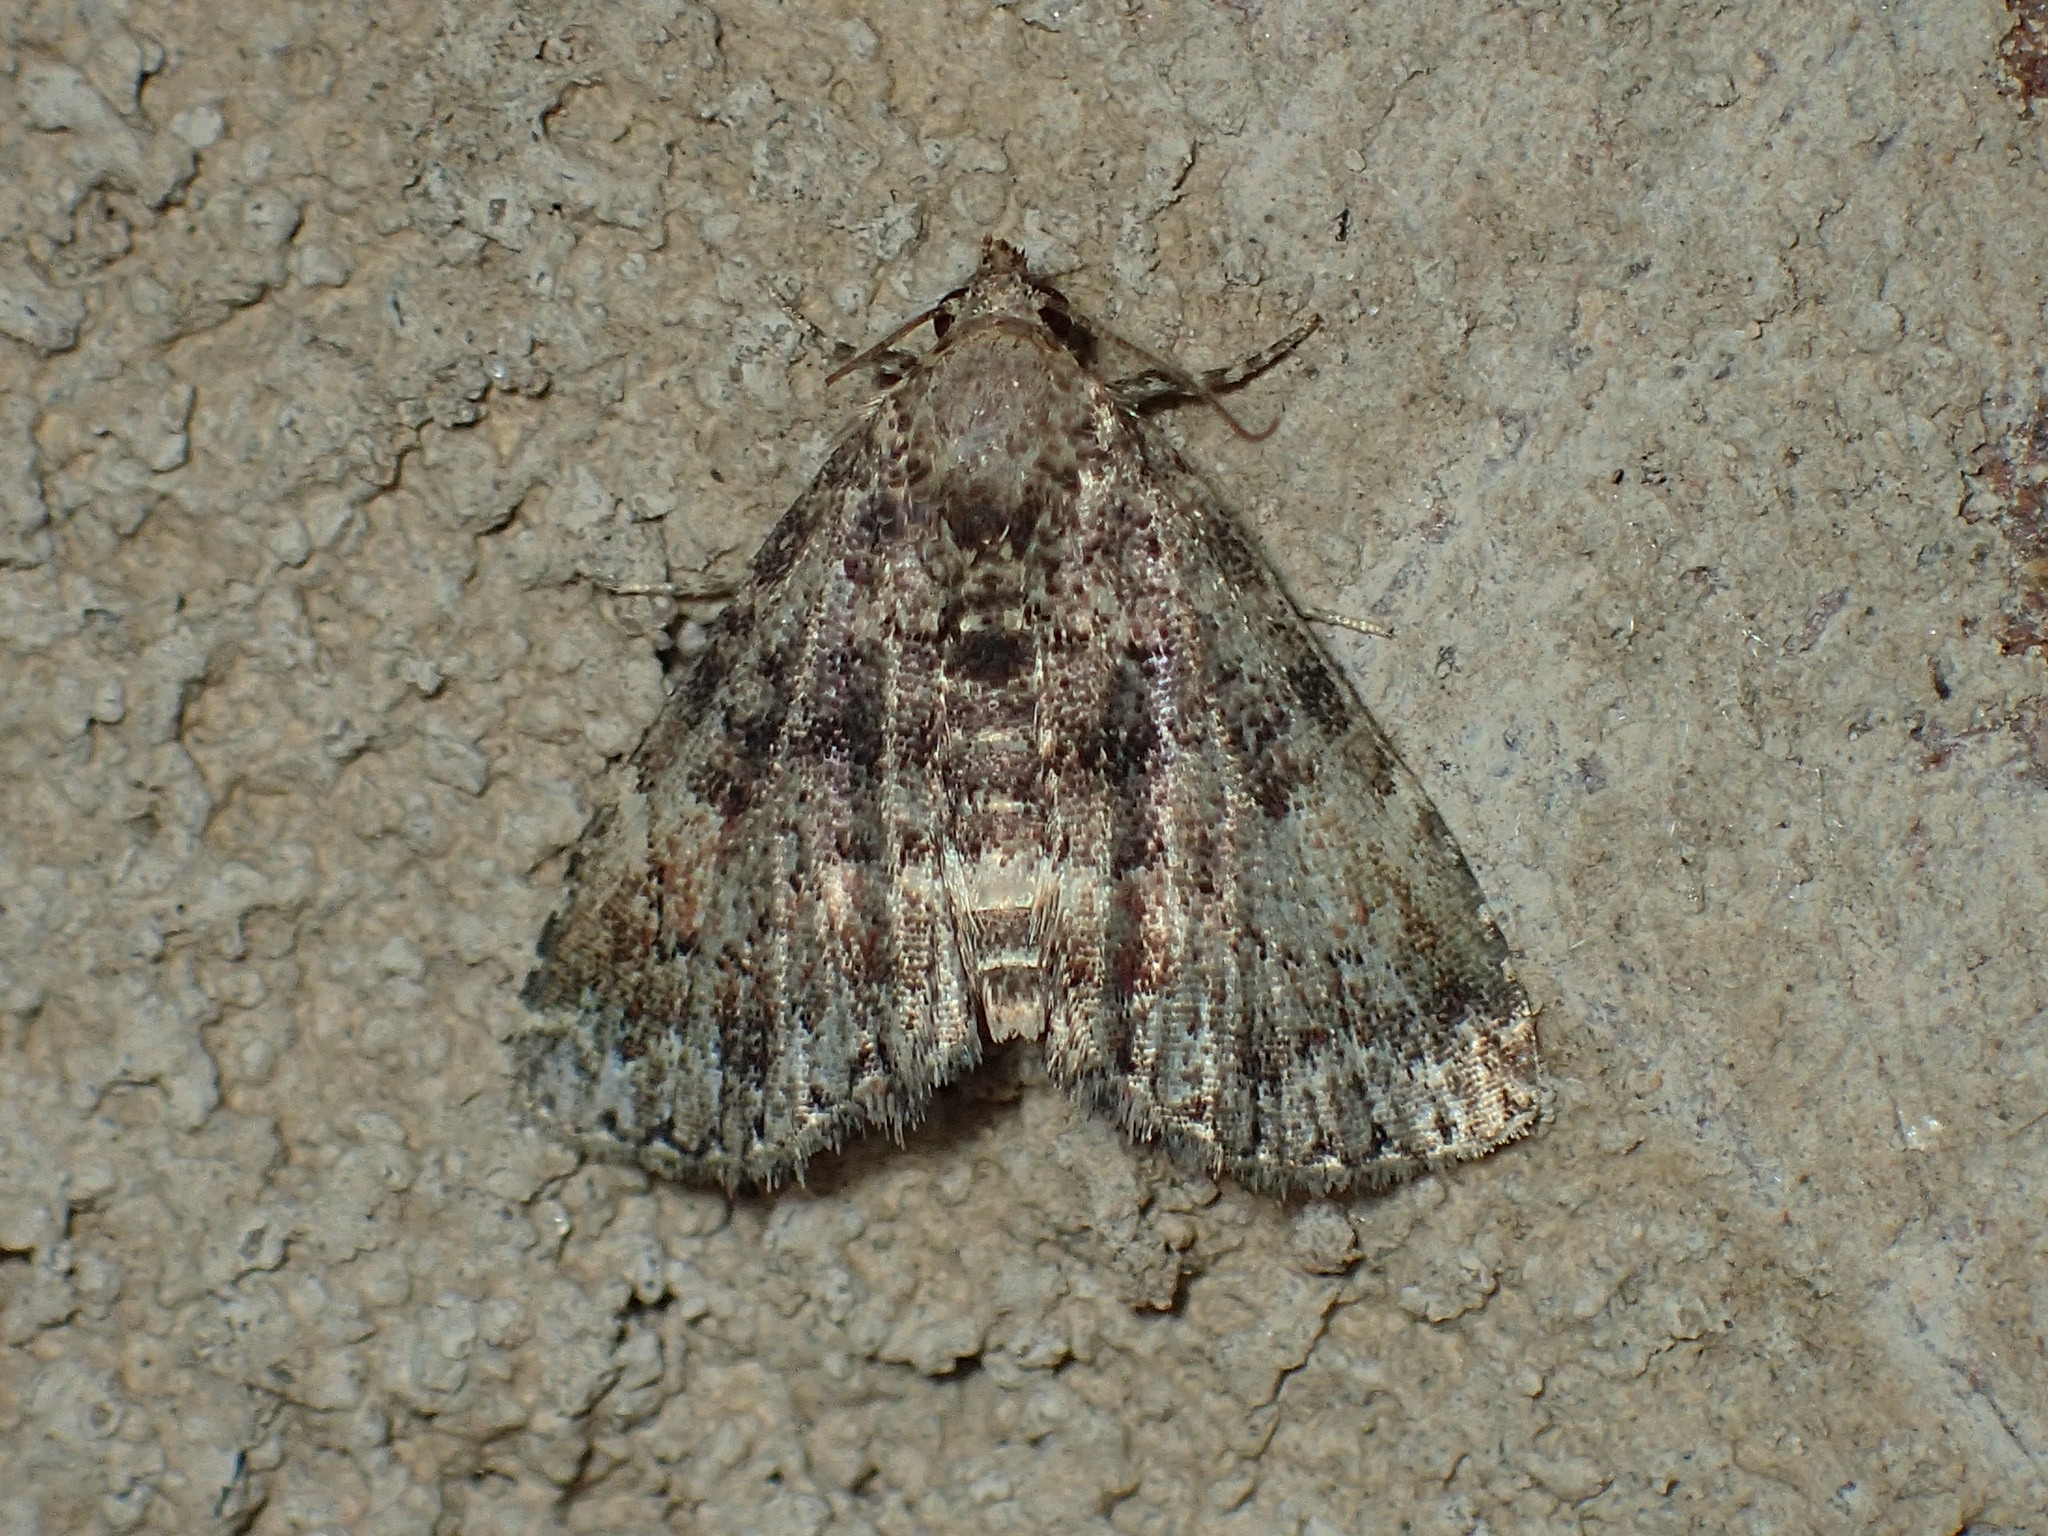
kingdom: Animalia
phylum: Arthropoda
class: Insecta
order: Lepidoptera
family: Erebidae
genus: Metalectra
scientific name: Metalectra richardsi
